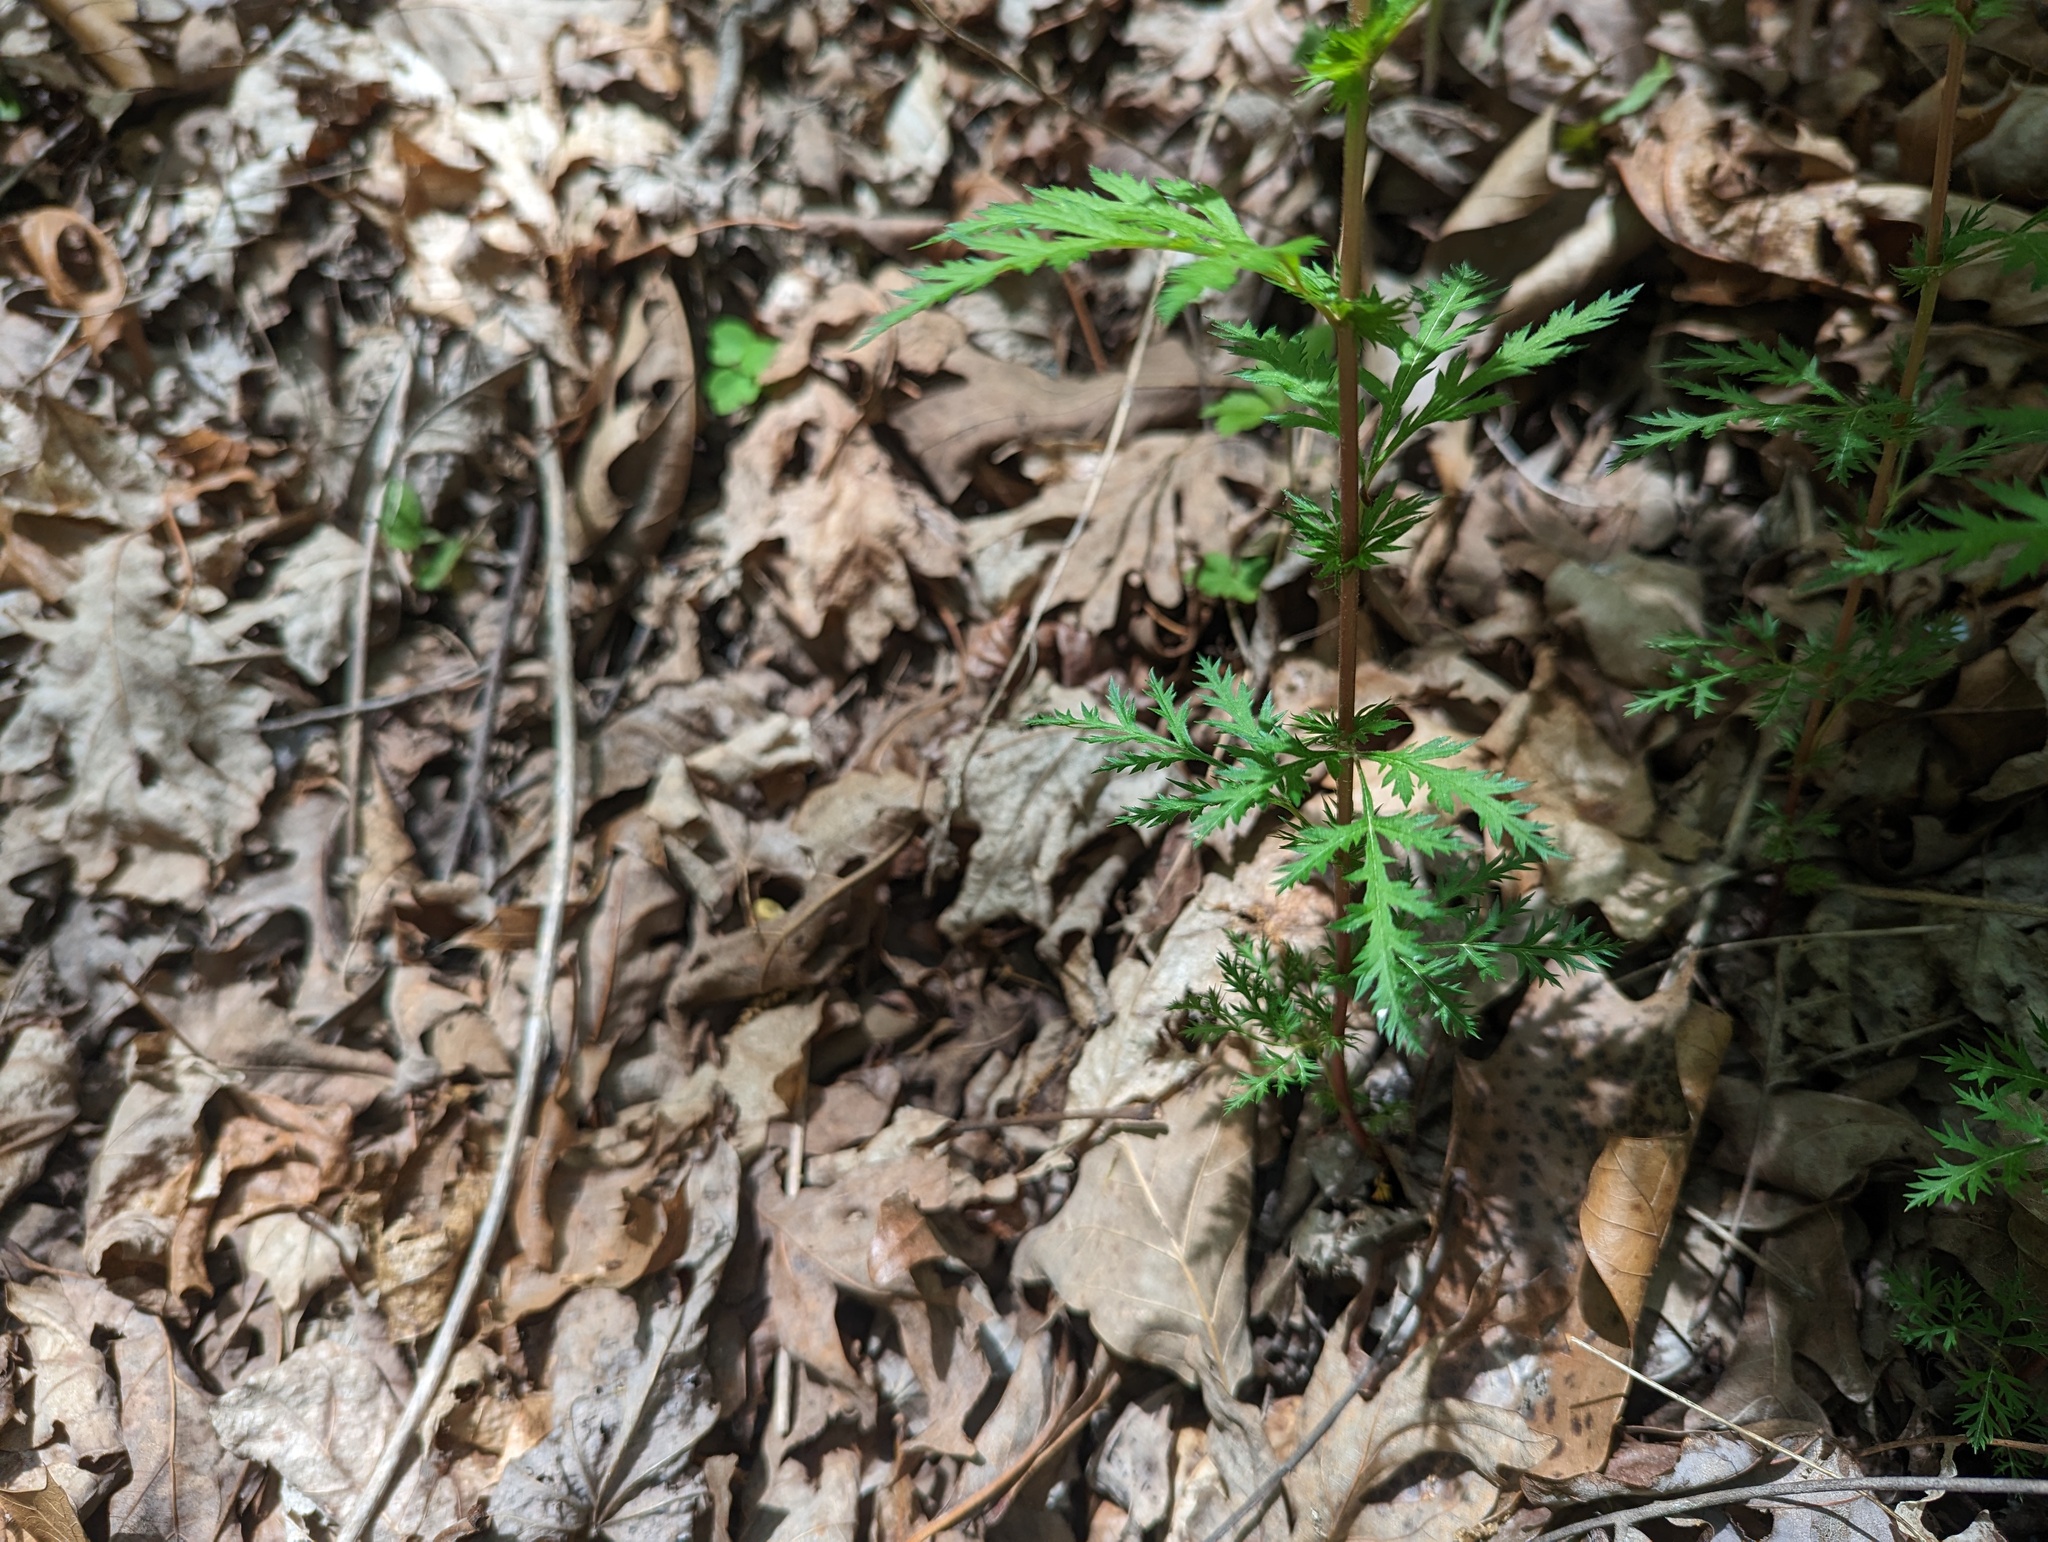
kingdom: Plantae
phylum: Tracheophyta
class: Magnoliopsida
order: Rosales
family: Rosaceae
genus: Gillenia
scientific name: Gillenia stipulata
